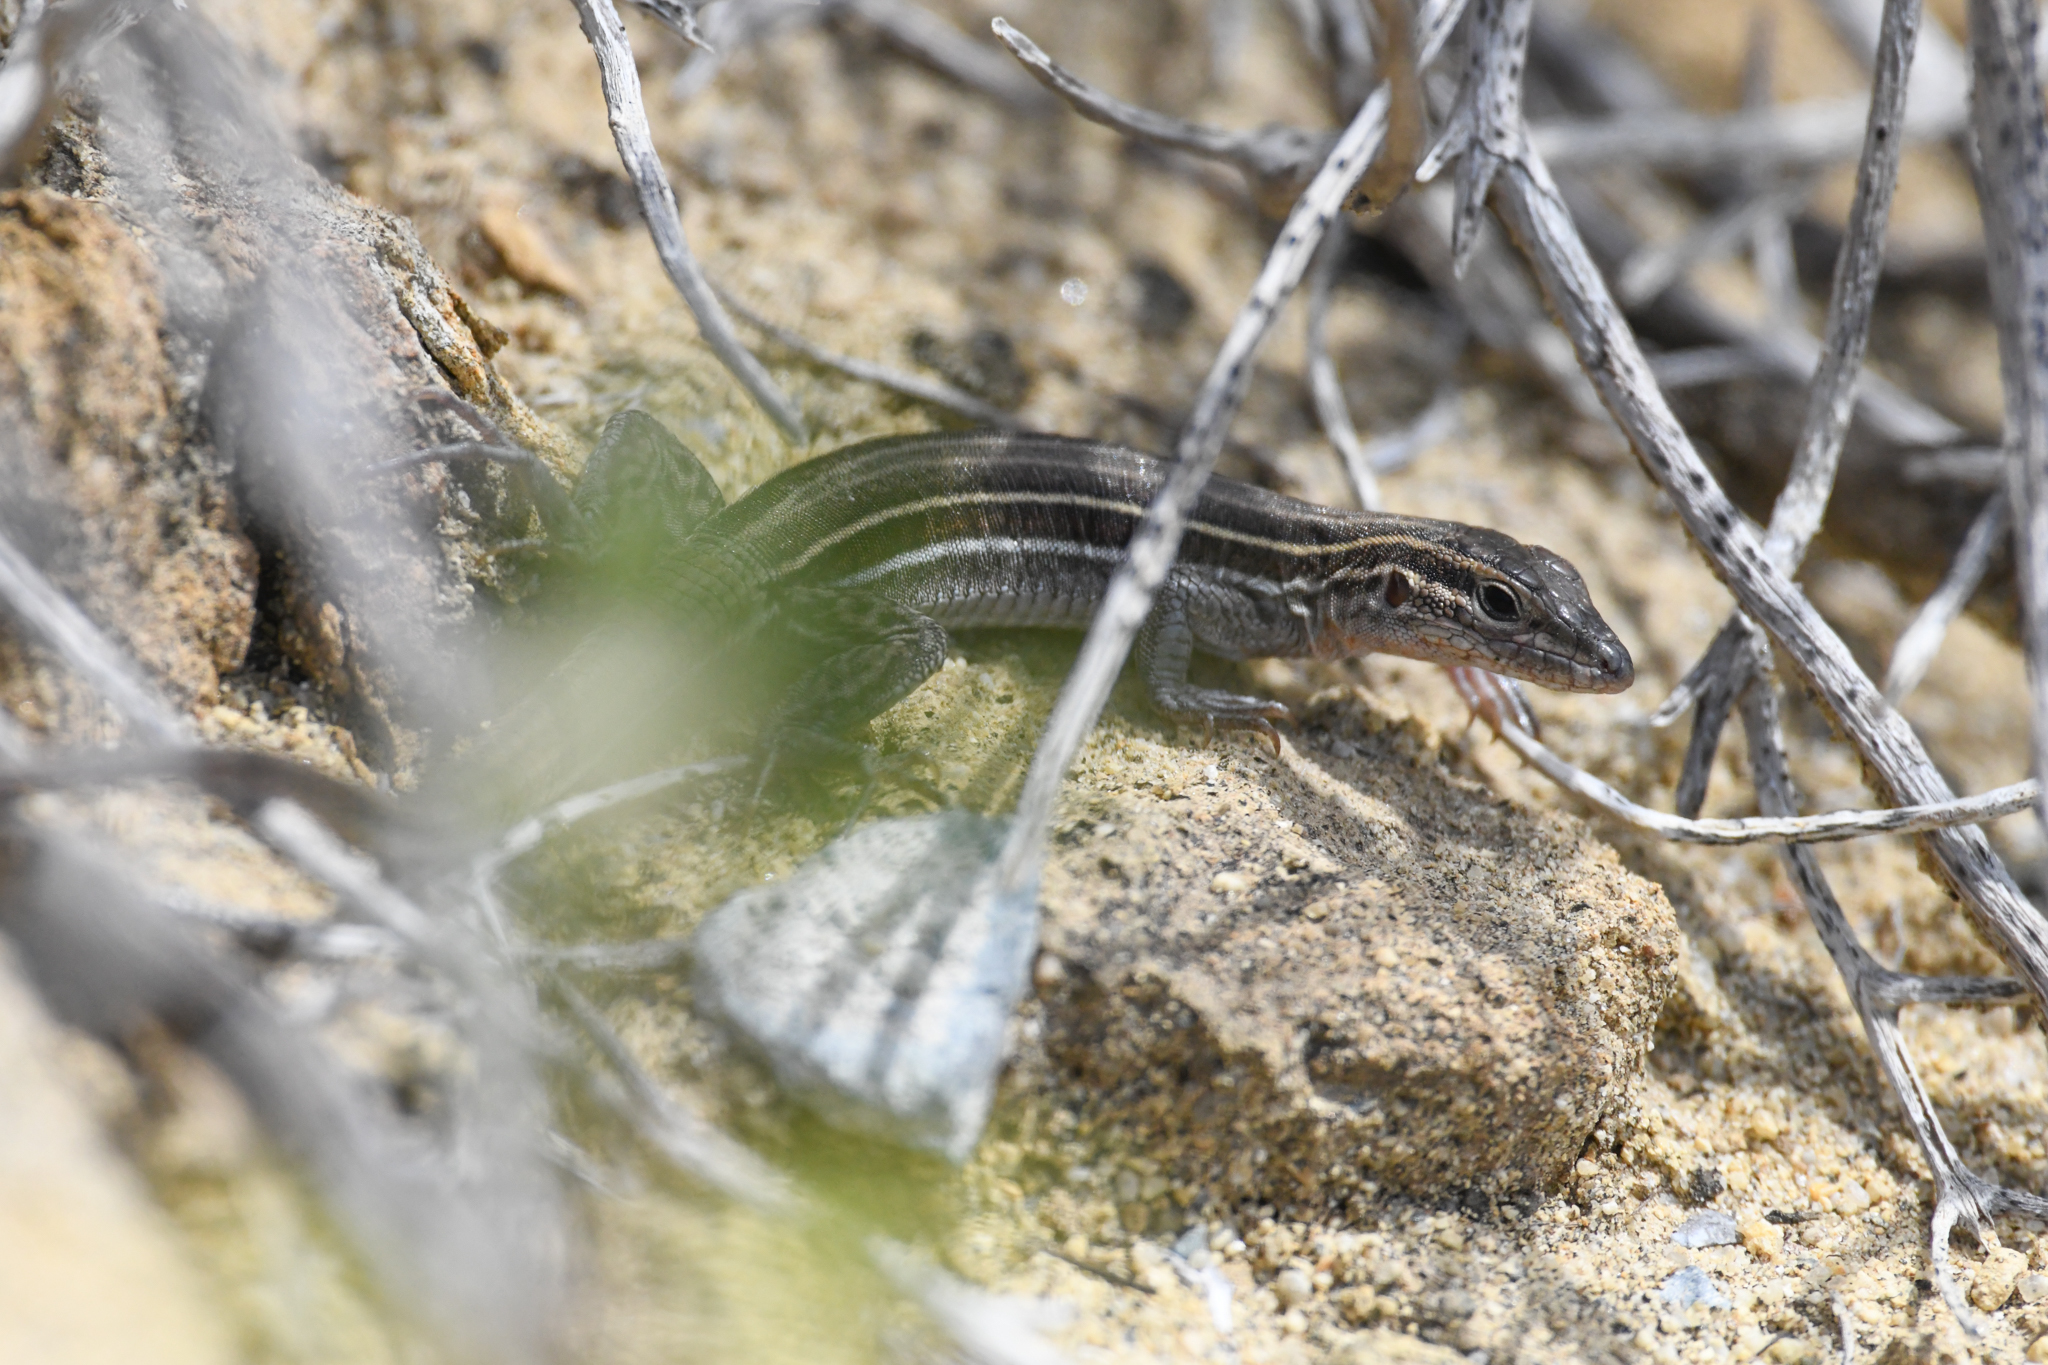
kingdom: Animalia
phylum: Chordata
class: Squamata
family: Teiidae
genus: Aspidoscelis
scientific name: Aspidoscelis hyperythrus
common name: Orange-throated race-runner
